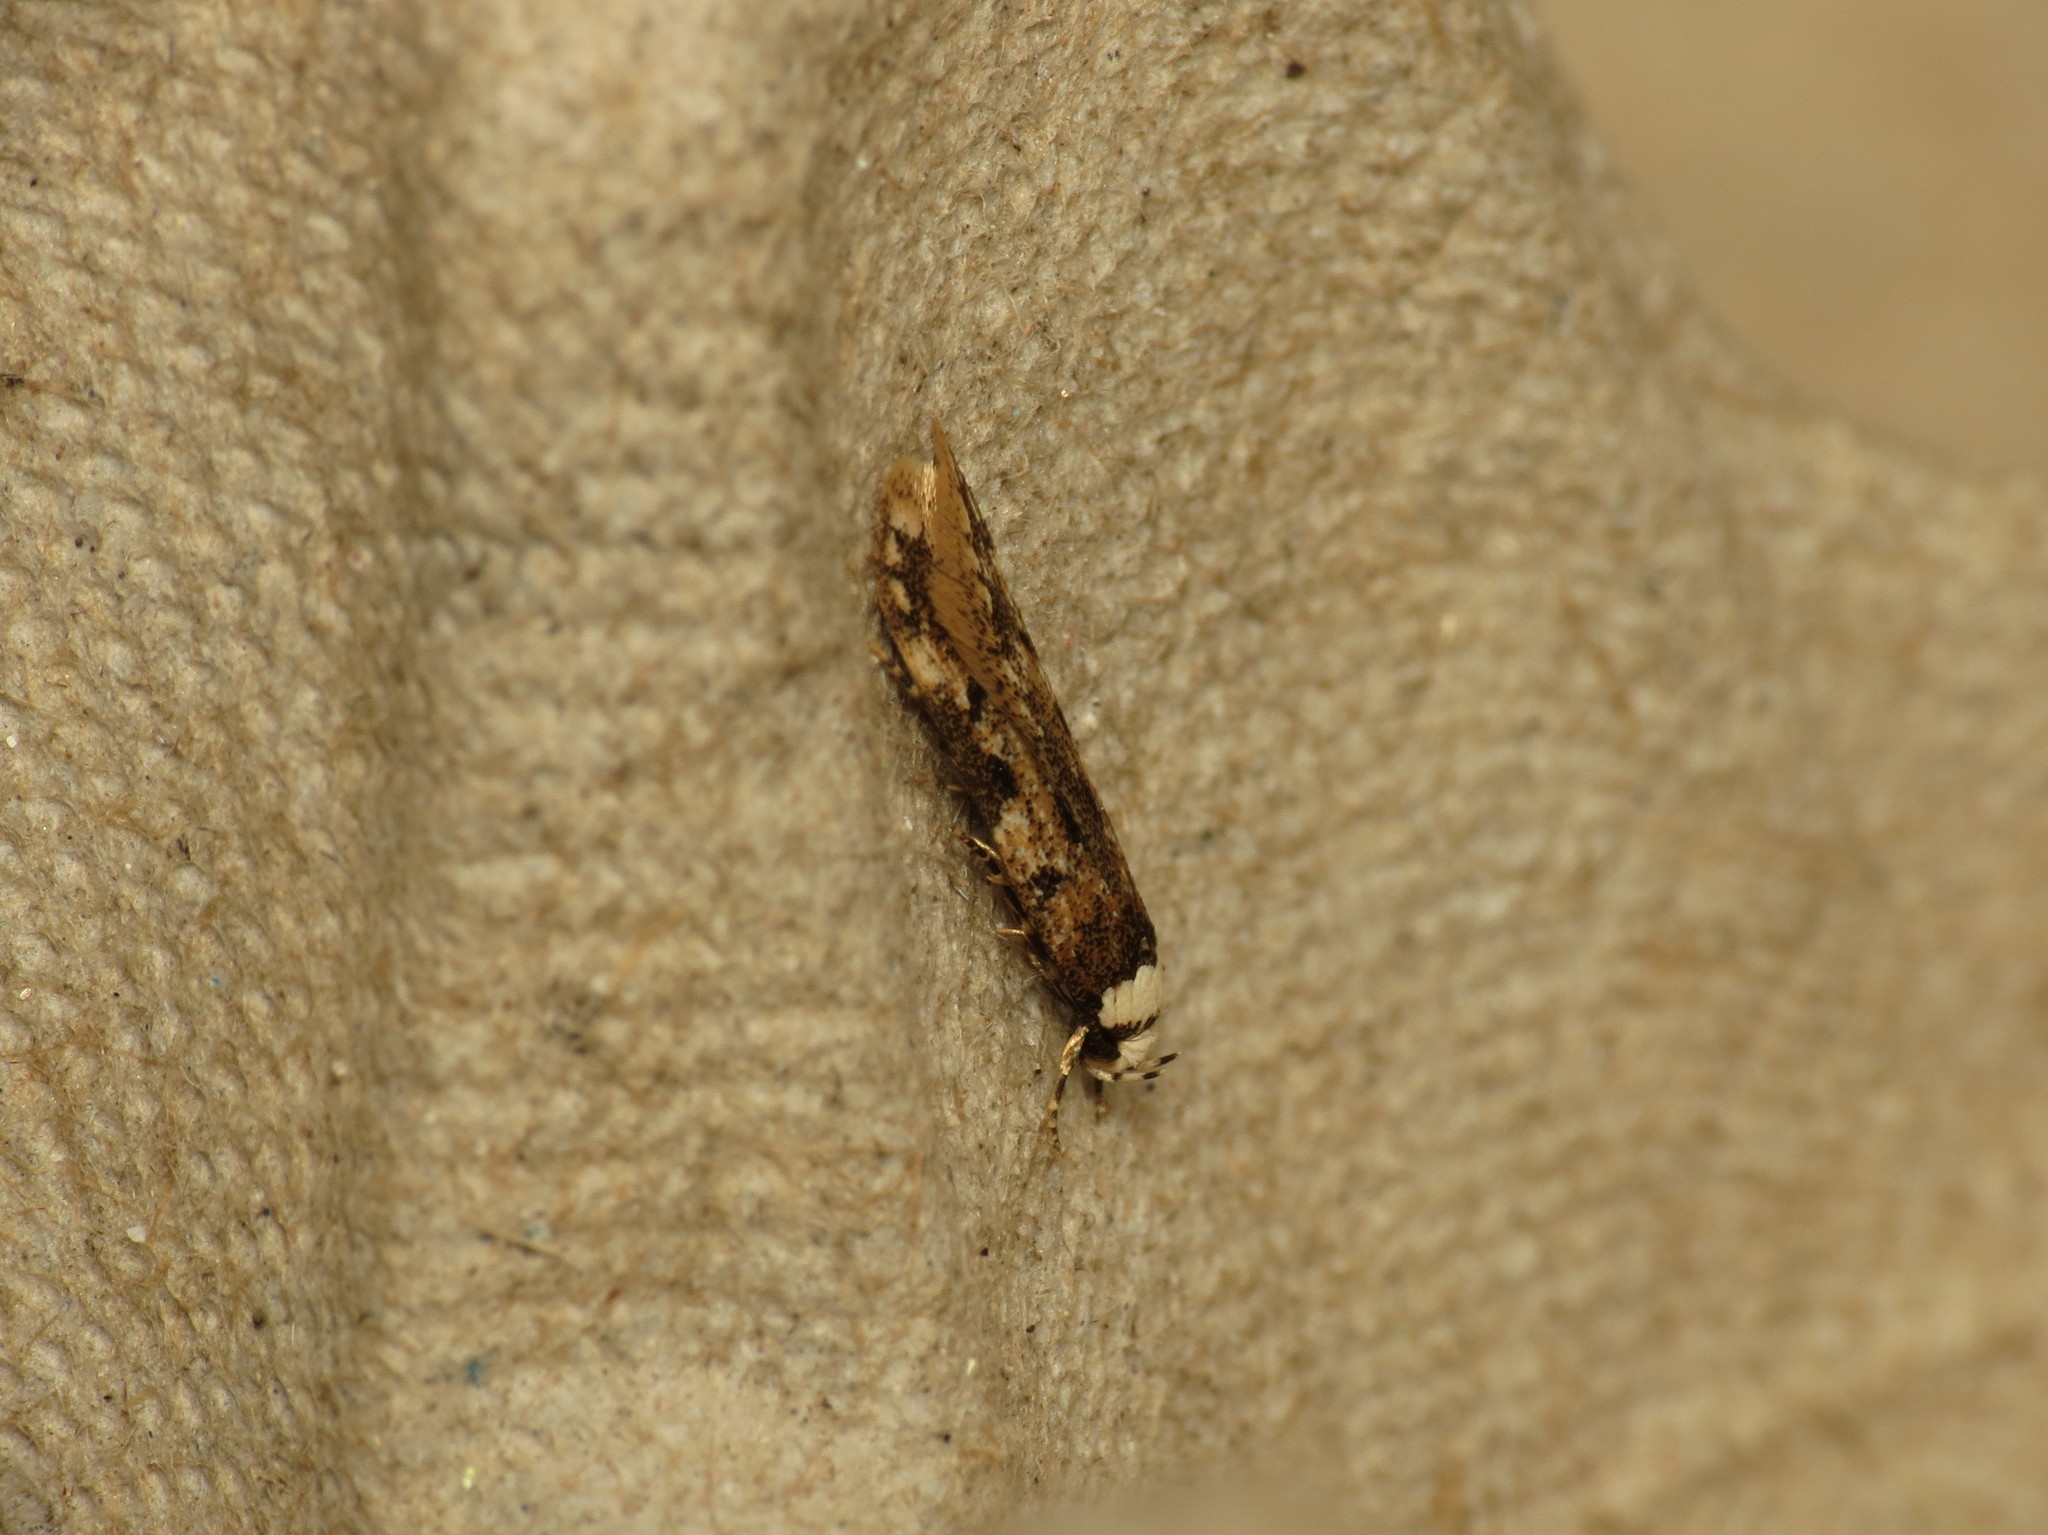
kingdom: Animalia
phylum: Arthropoda
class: Insecta
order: Lepidoptera
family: Oecophoridae
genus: Endrosis
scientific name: Endrosis sarcitrella
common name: White-shouldered house moth
